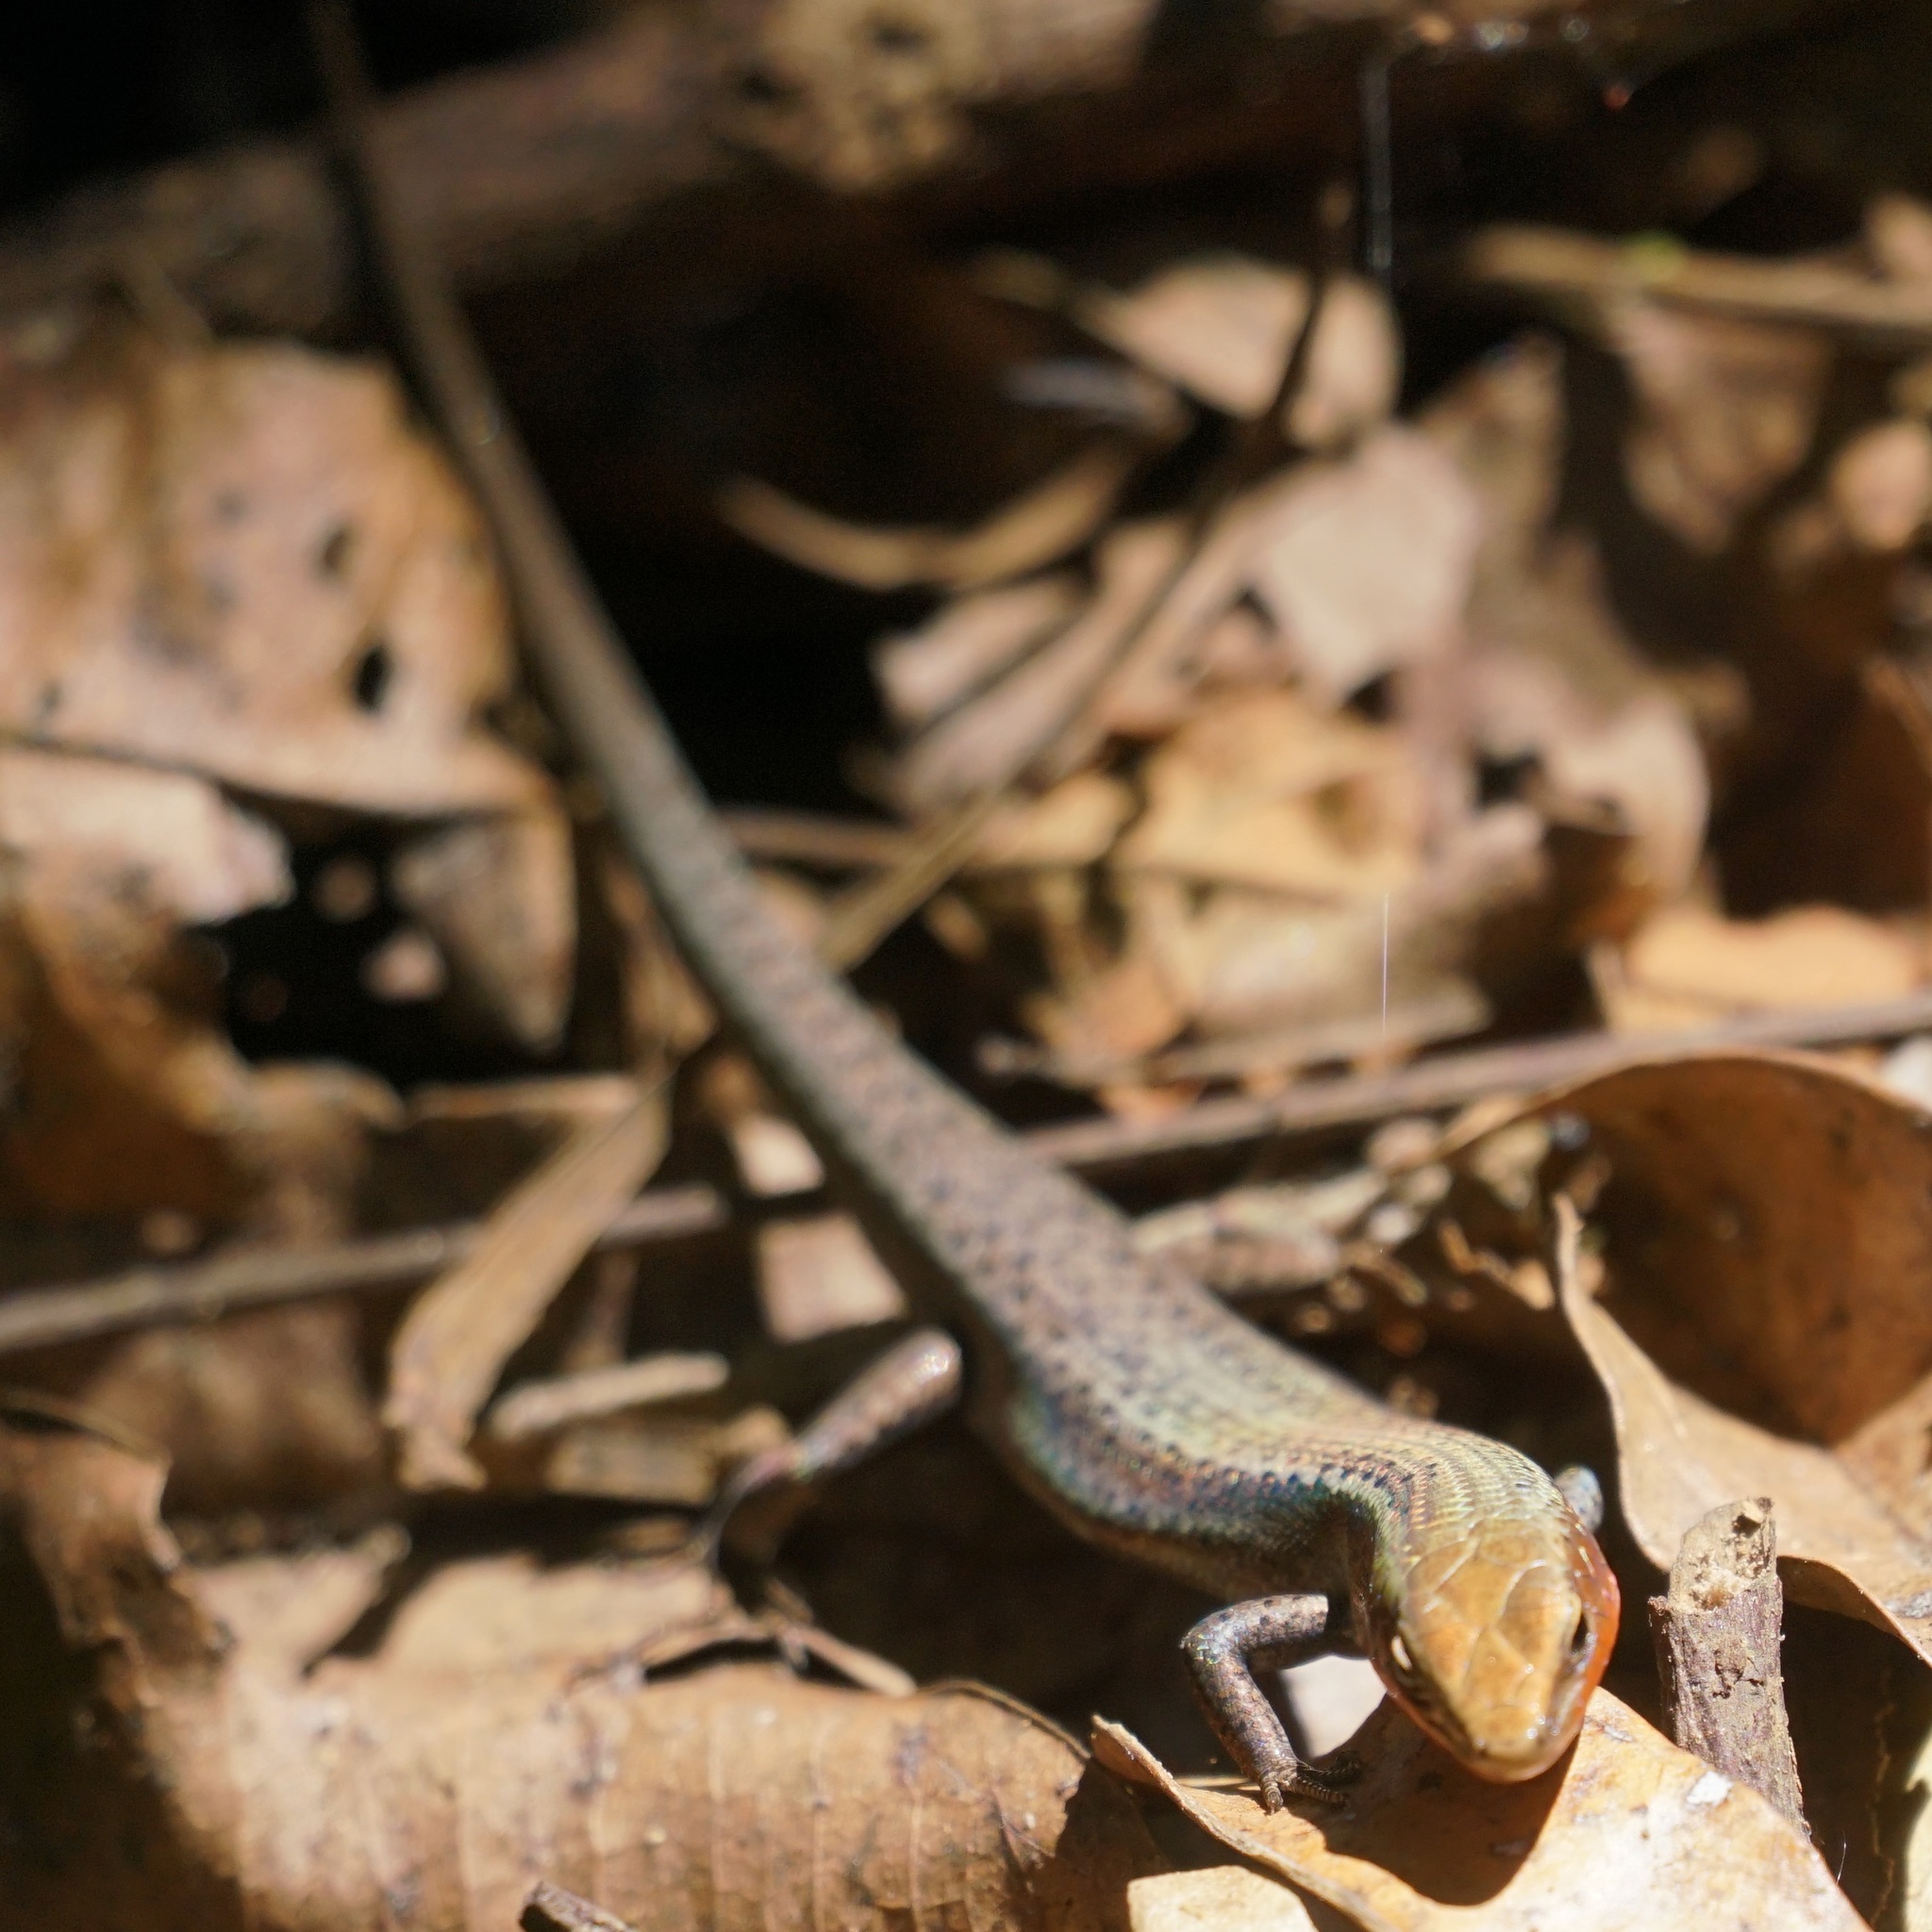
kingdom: Animalia
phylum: Chordata
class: Squamata
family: Scincidae
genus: Carlia
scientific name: Carlia rubrigularis
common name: Northern red-throated skink
